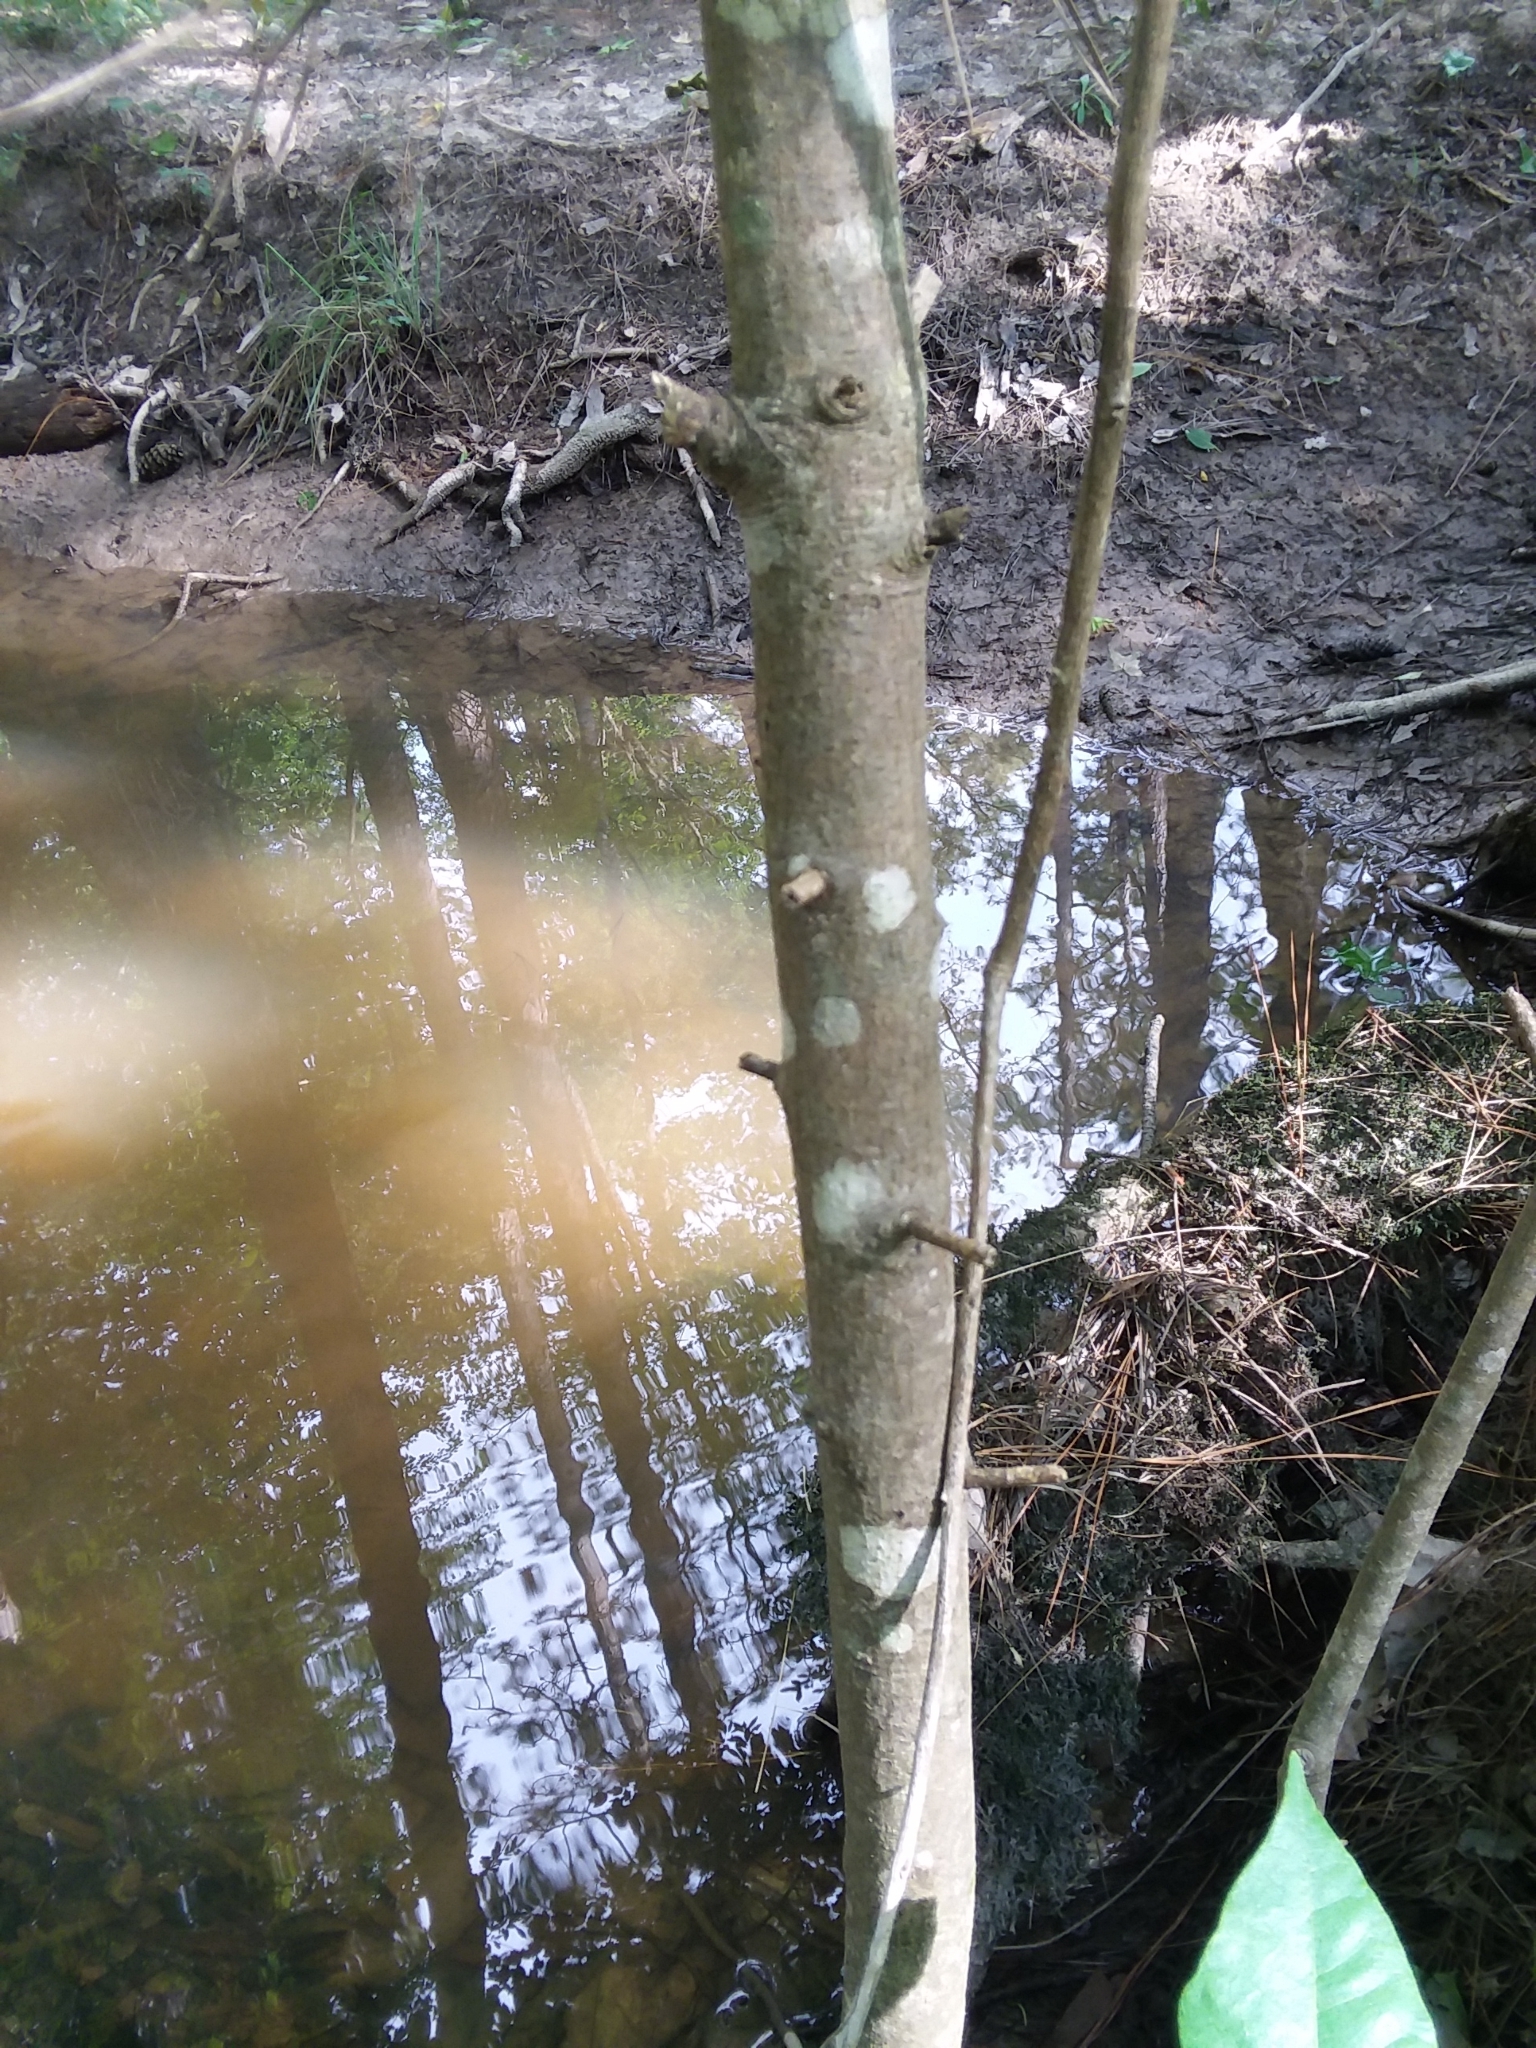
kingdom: Plantae
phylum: Tracheophyta
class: Magnoliopsida
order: Ericales
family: Symplocaceae
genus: Symplocos
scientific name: Symplocos tinctoria
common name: Horse-sugar
